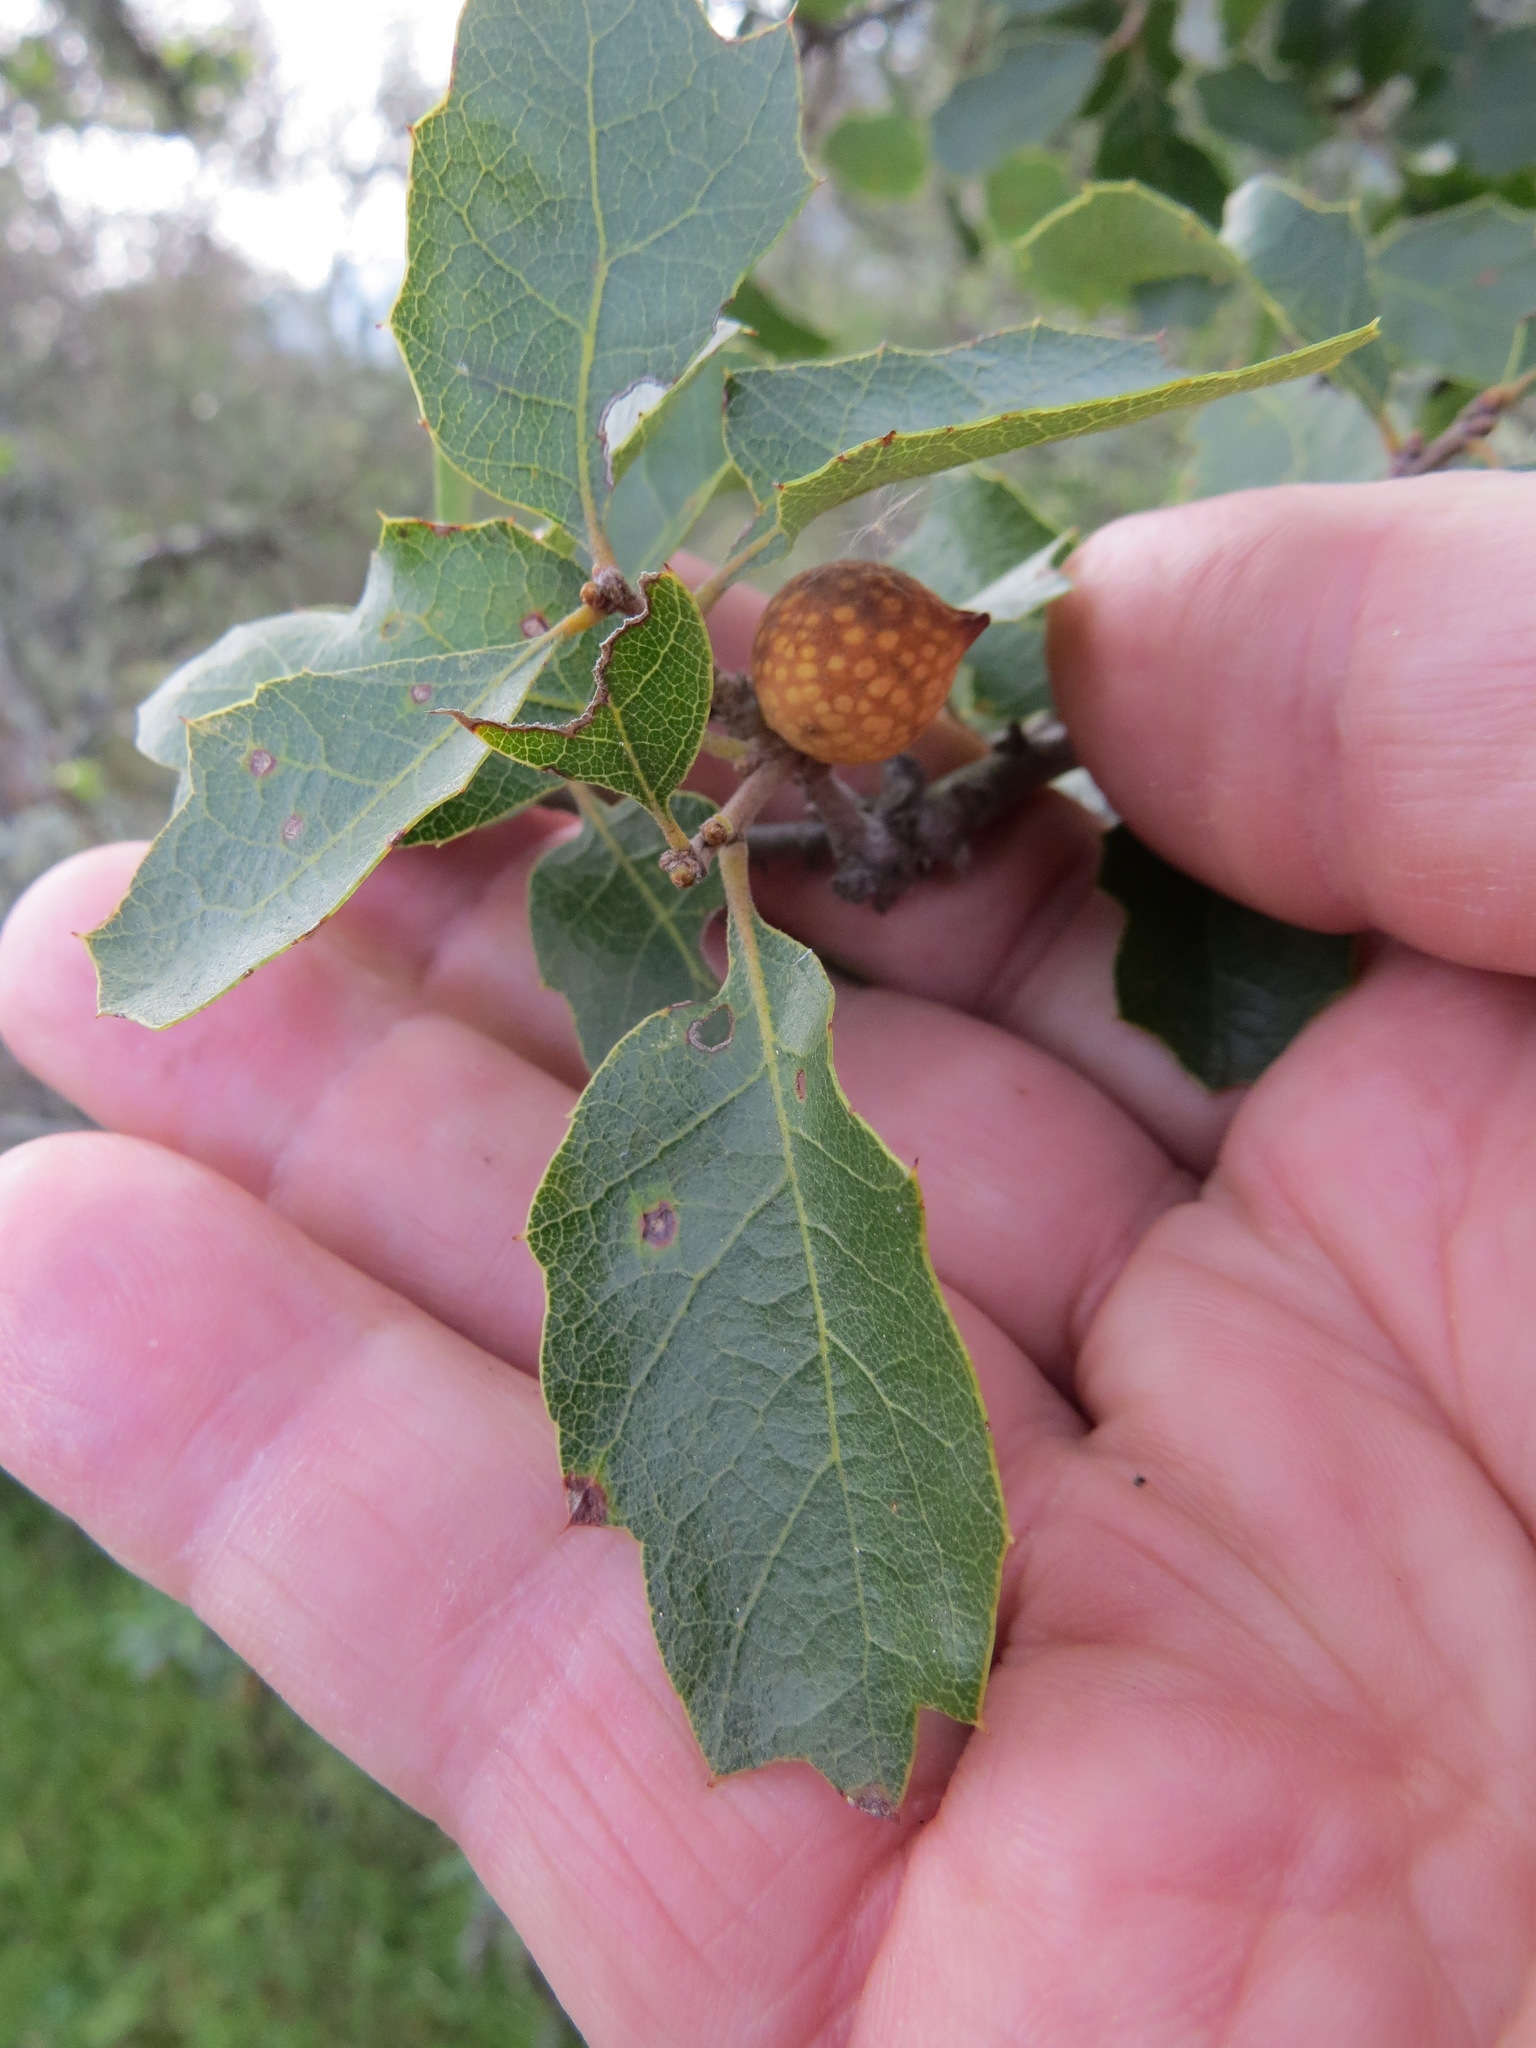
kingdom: Animalia
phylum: Arthropoda
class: Insecta
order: Hymenoptera
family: Cynipidae
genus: Burnettweldia
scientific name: Burnettweldia
